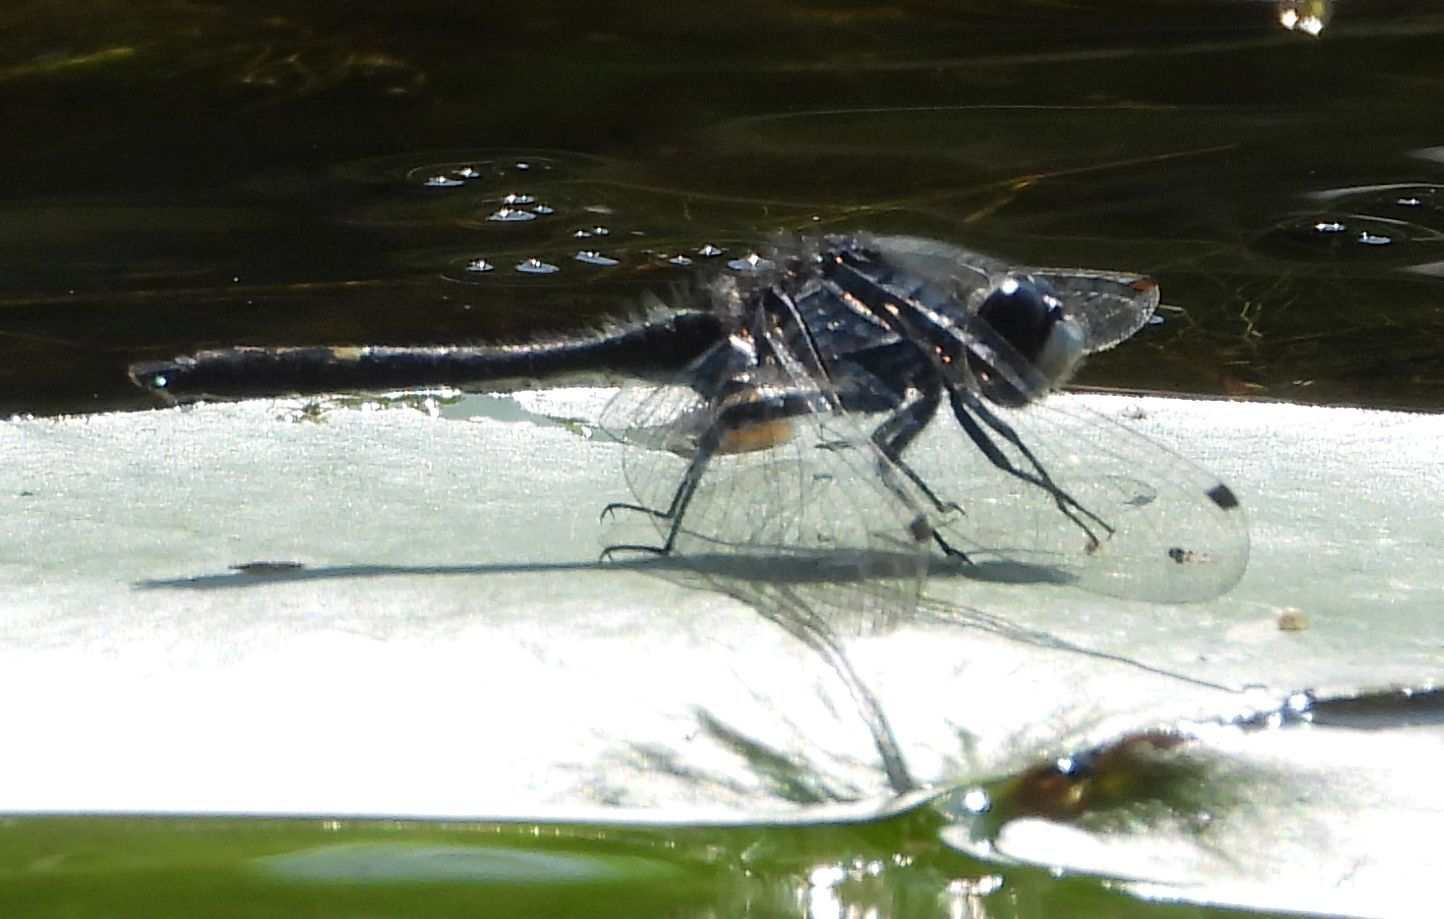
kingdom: Animalia
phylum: Arthropoda
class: Insecta
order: Odonata
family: Libellulidae
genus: Leucorrhinia
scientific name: Leucorrhinia intacta
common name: Dot-tailed whiteface
